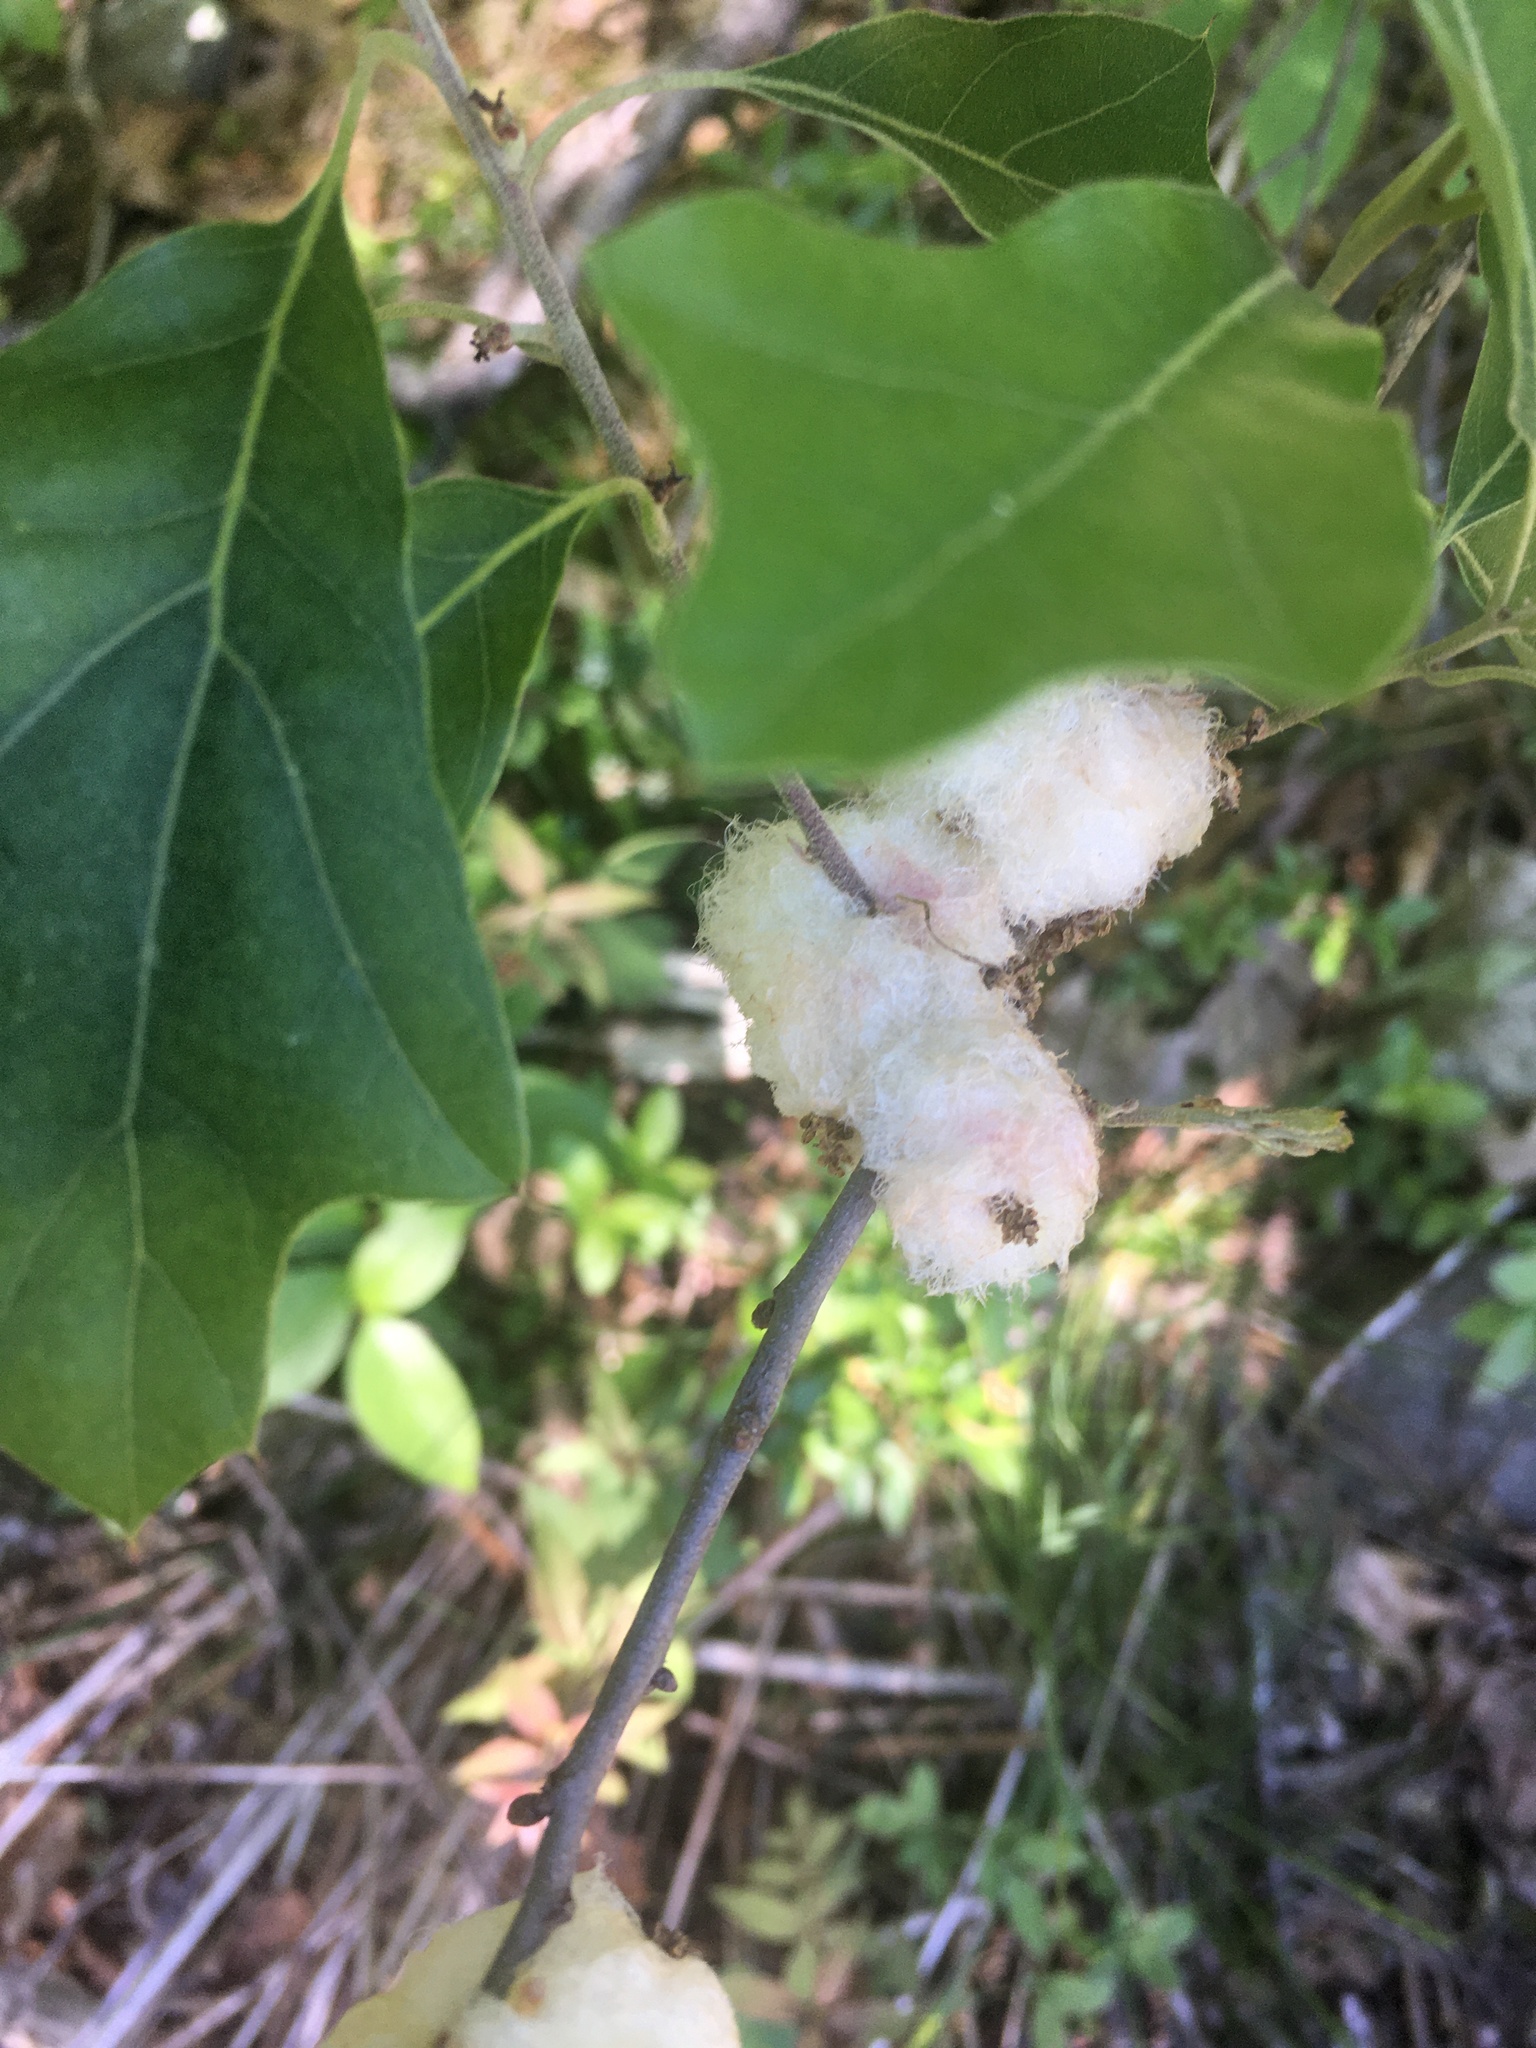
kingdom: Animalia
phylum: Arthropoda
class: Insecta
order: Hymenoptera
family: Cynipidae
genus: Callirhytis
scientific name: Callirhytis
